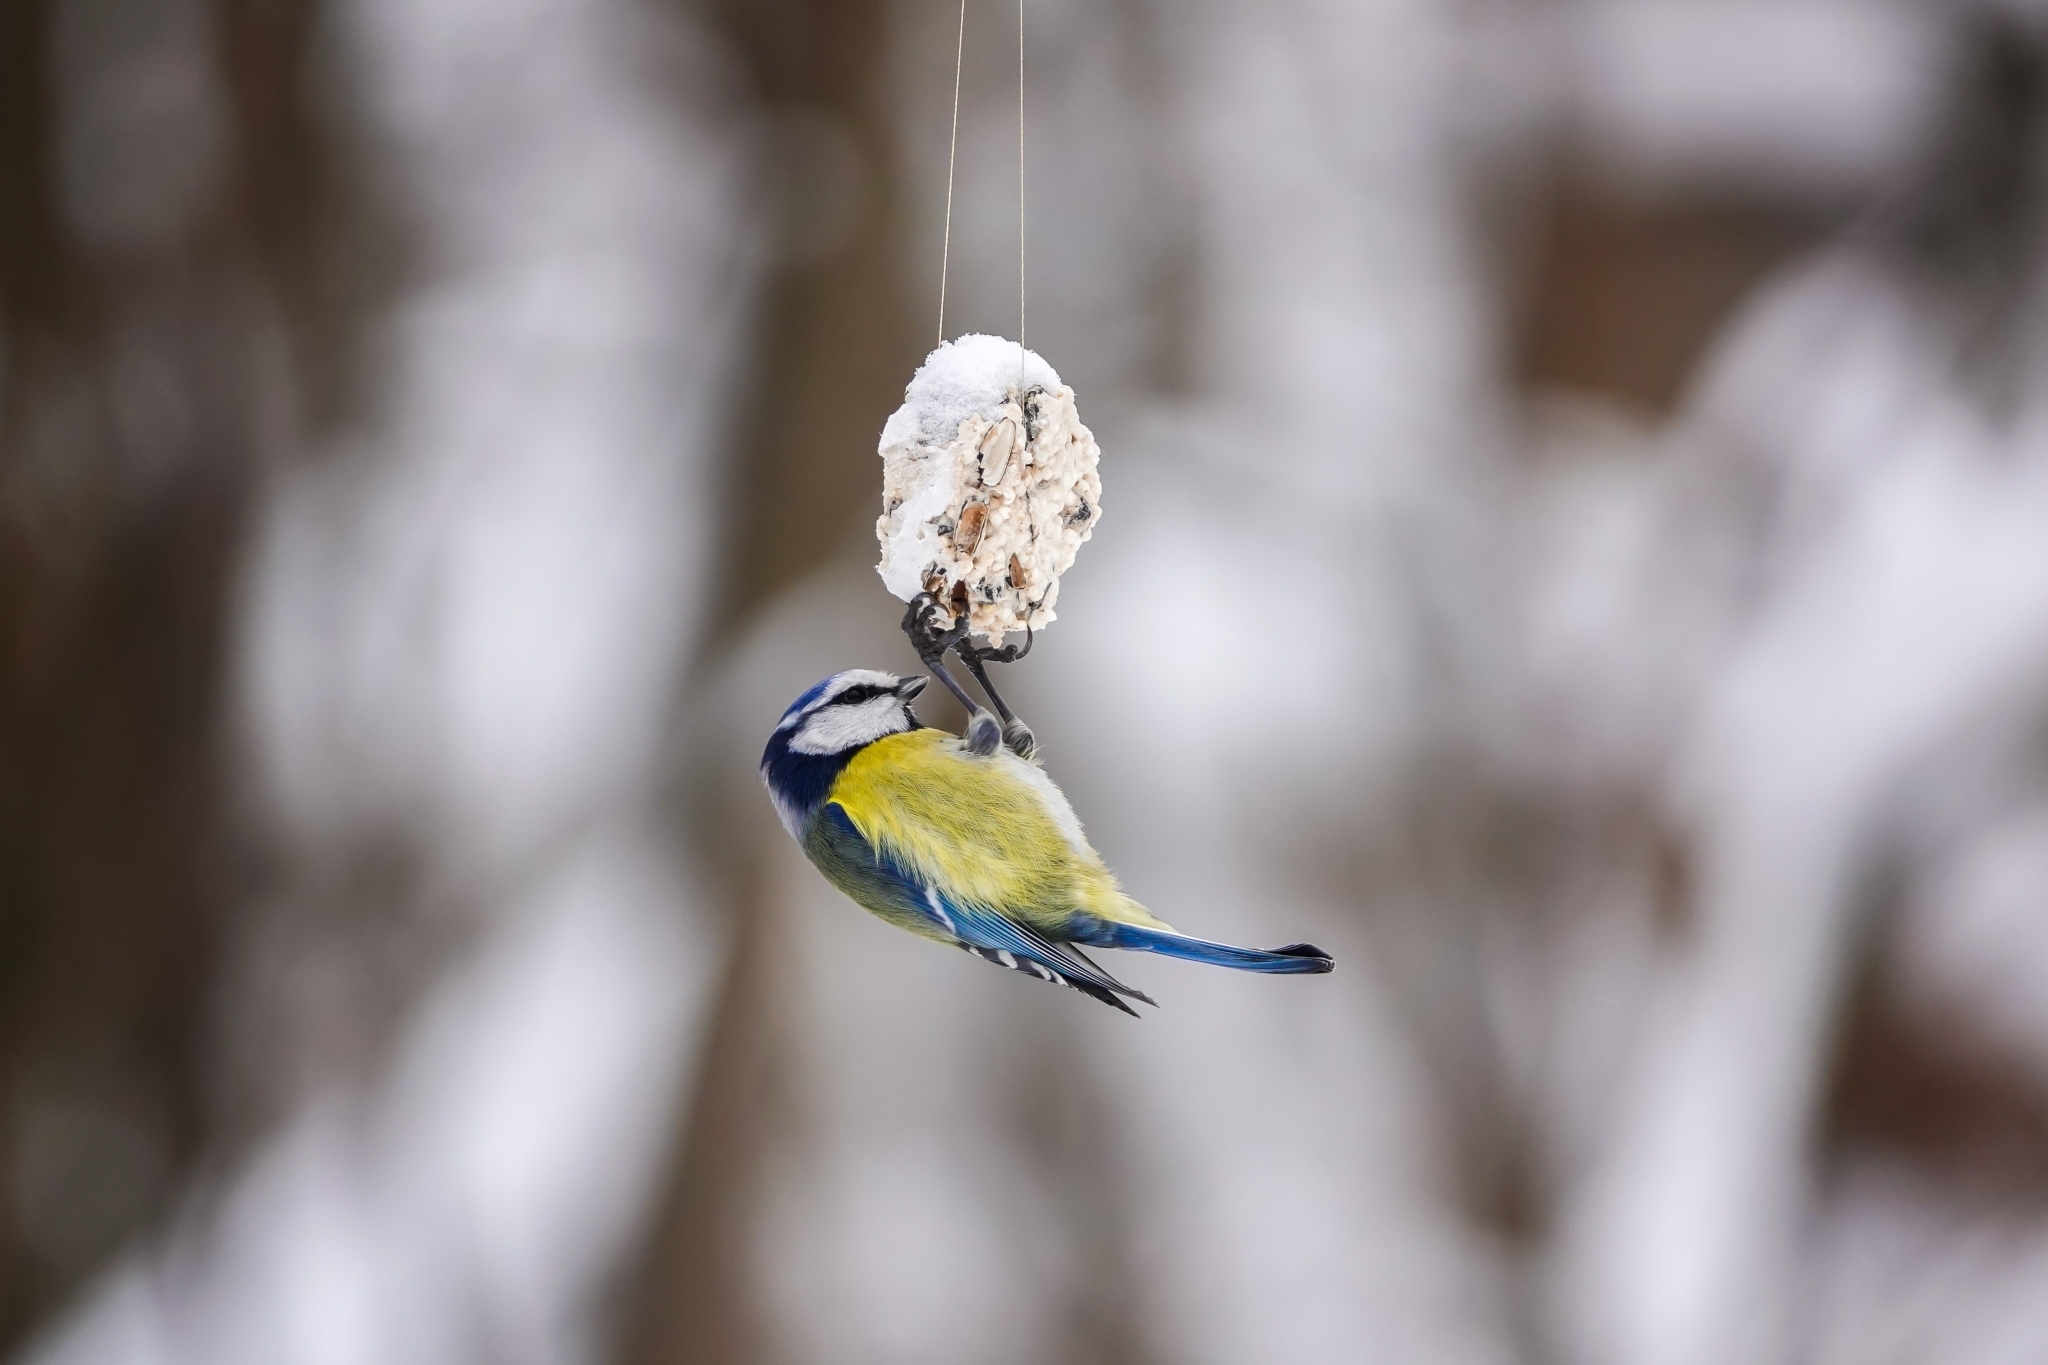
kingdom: Animalia
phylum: Chordata
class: Aves
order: Passeriformes
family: Paridae
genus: Cyanistes
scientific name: Cyanistes caeruleus
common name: Eurasian blue tit
